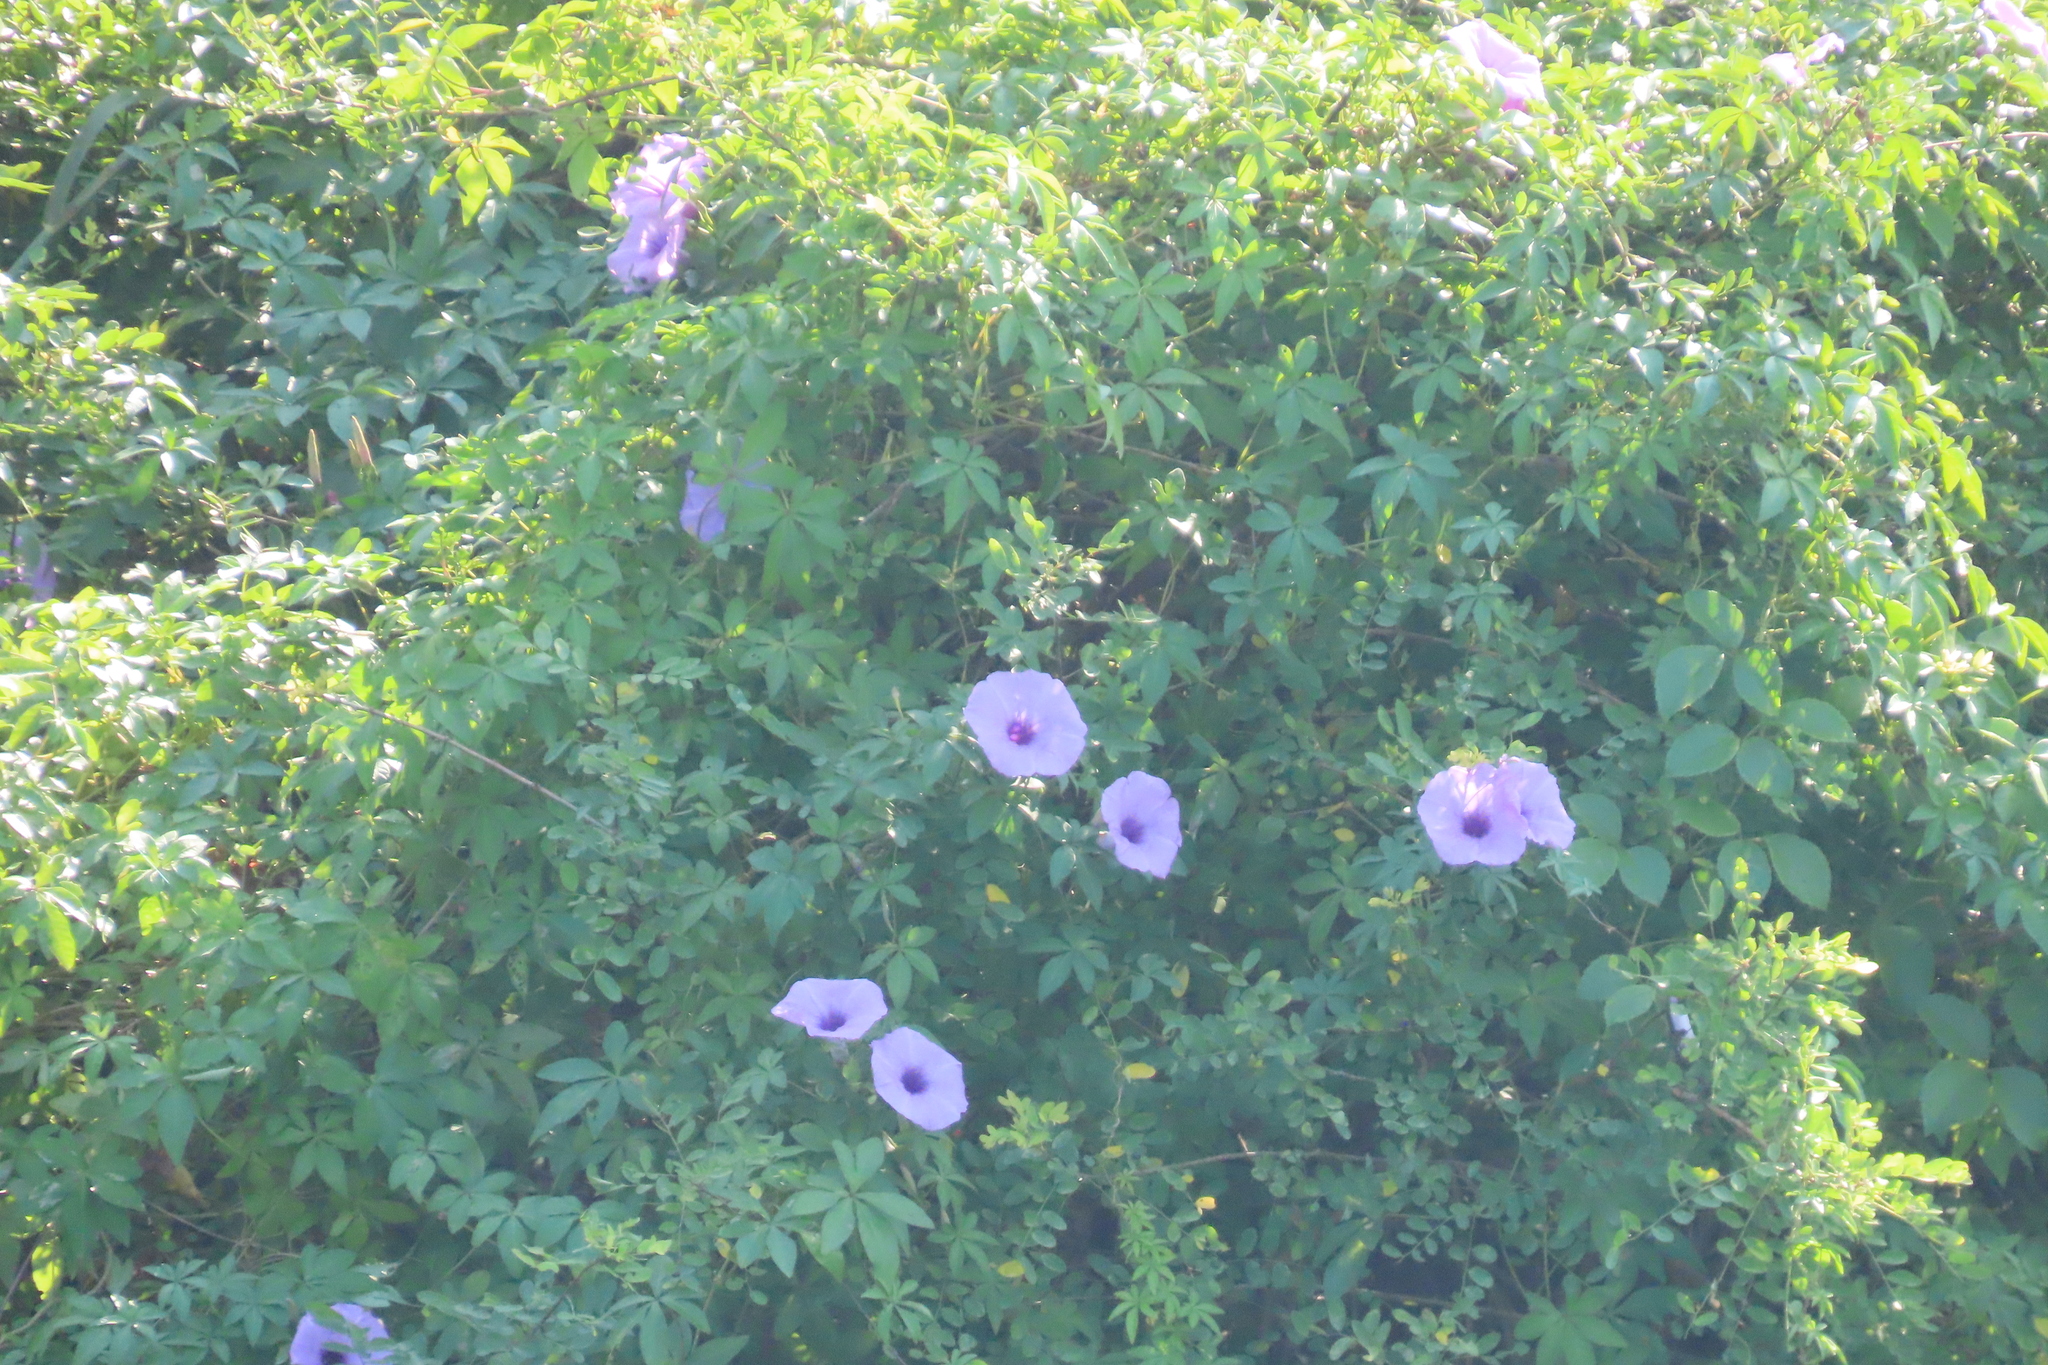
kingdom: Plantae
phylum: Tracheophyta
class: Magnoliopsida
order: Solanales
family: Convolvulaceae
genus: Ipomoea
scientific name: Ipomoea cairica
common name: Mile a minute vine
